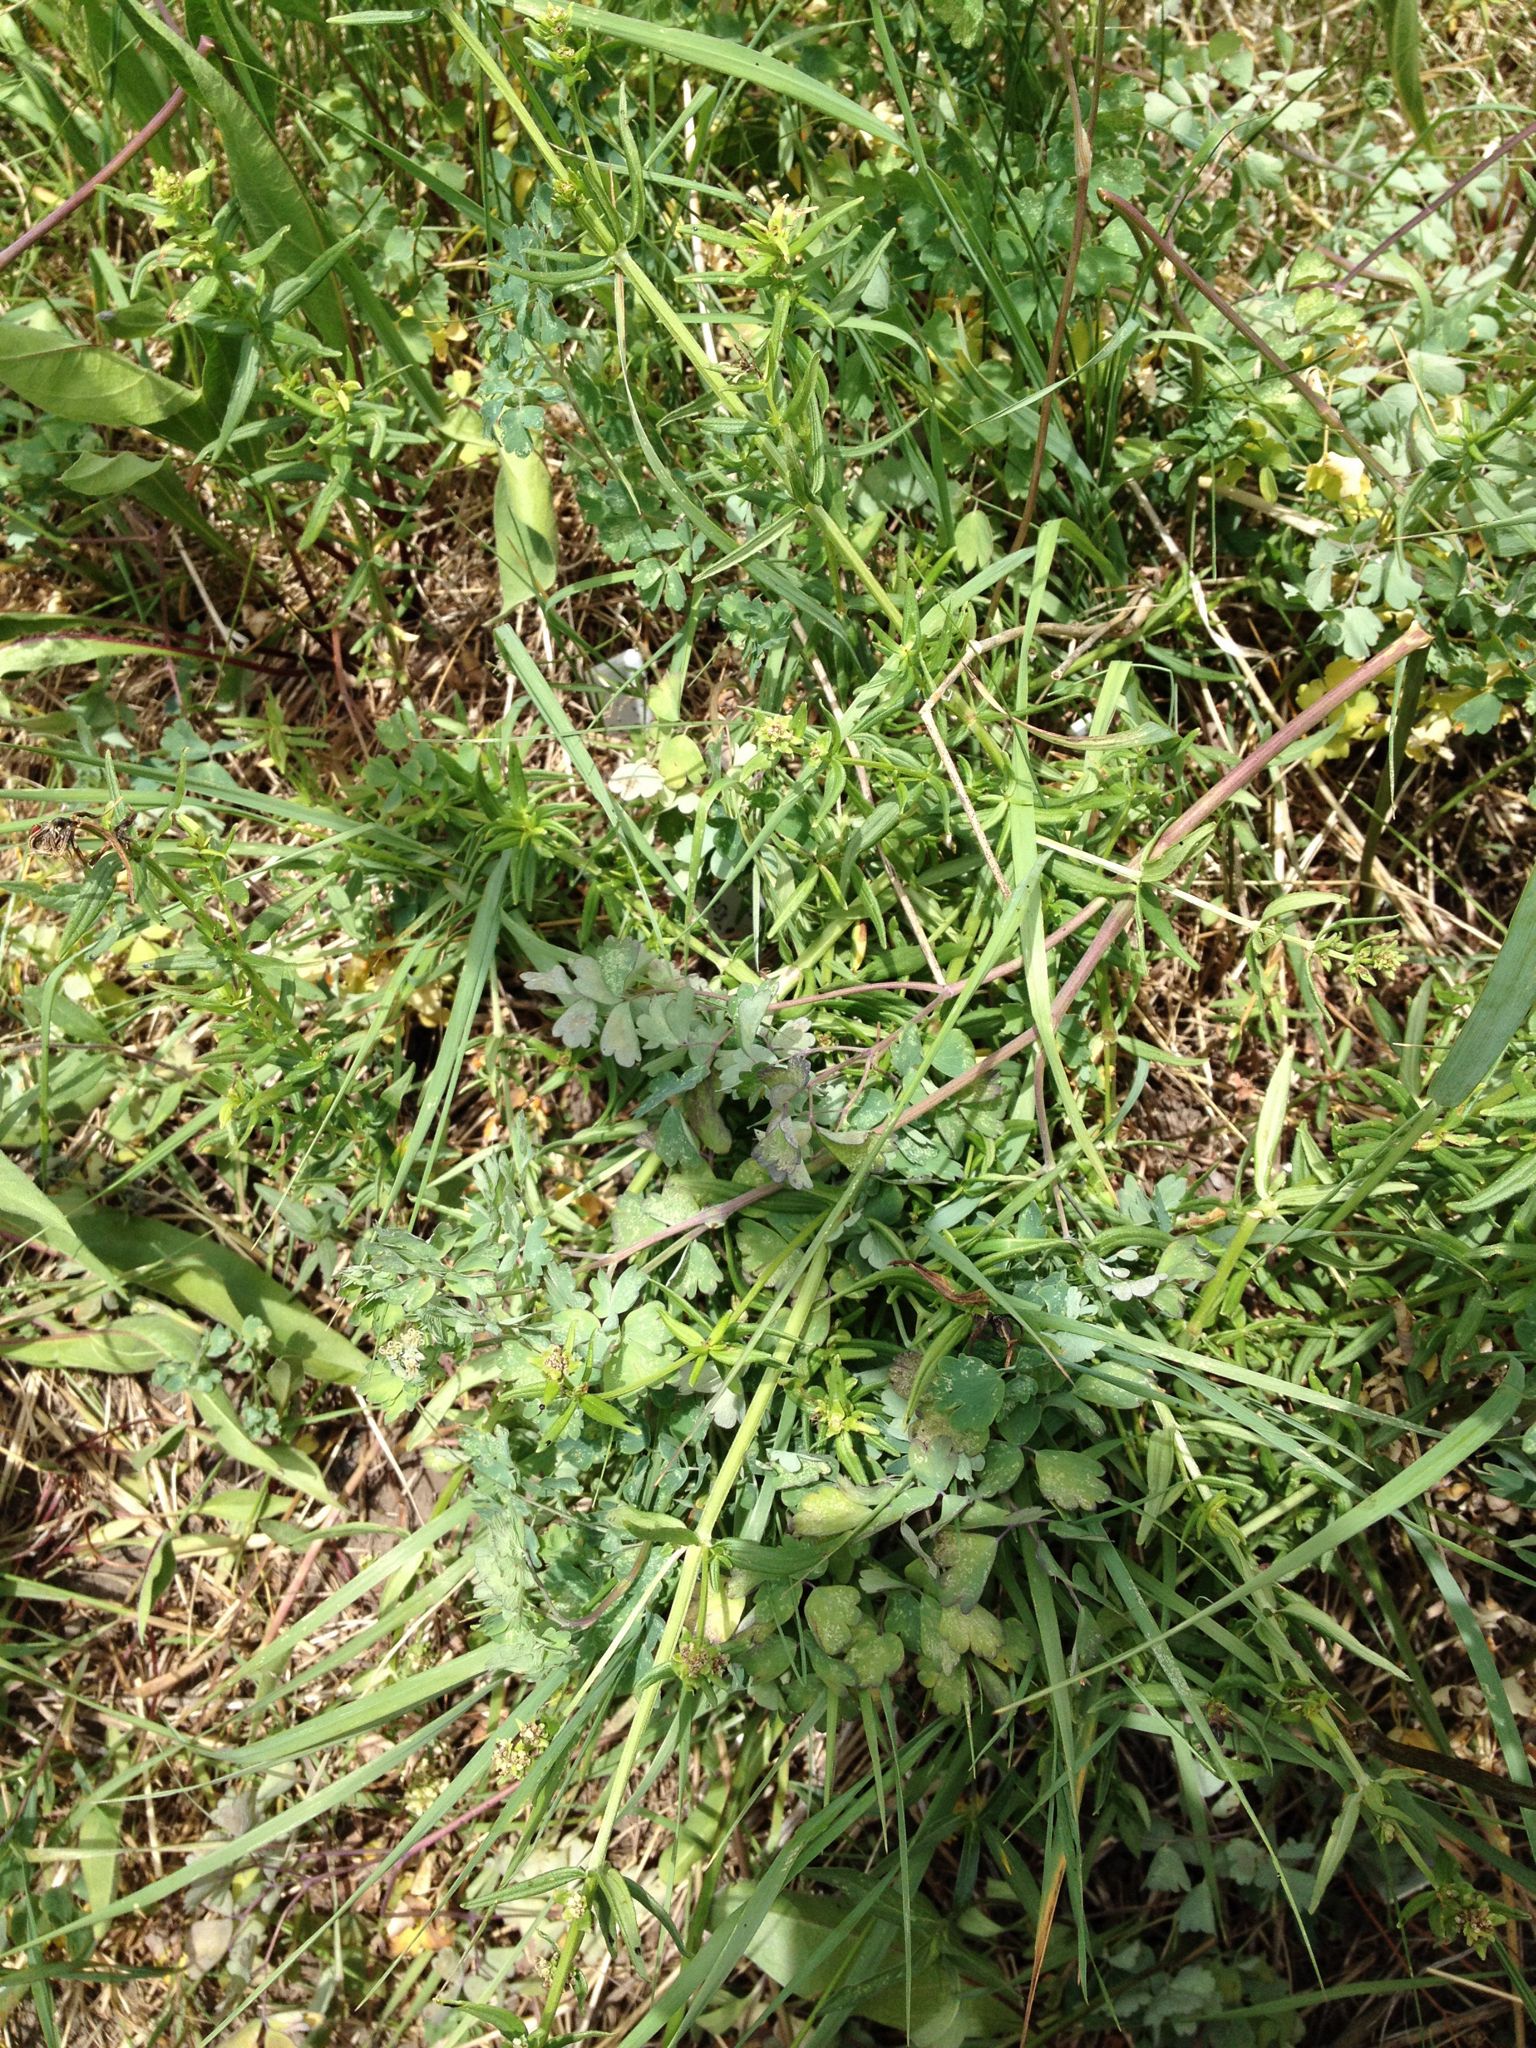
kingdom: Plantae
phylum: Tracheophyta
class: Magnoliopsida
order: Gentianales
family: Rubiaceae
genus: Galium
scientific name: Galium boreale
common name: Northern bedstraw
